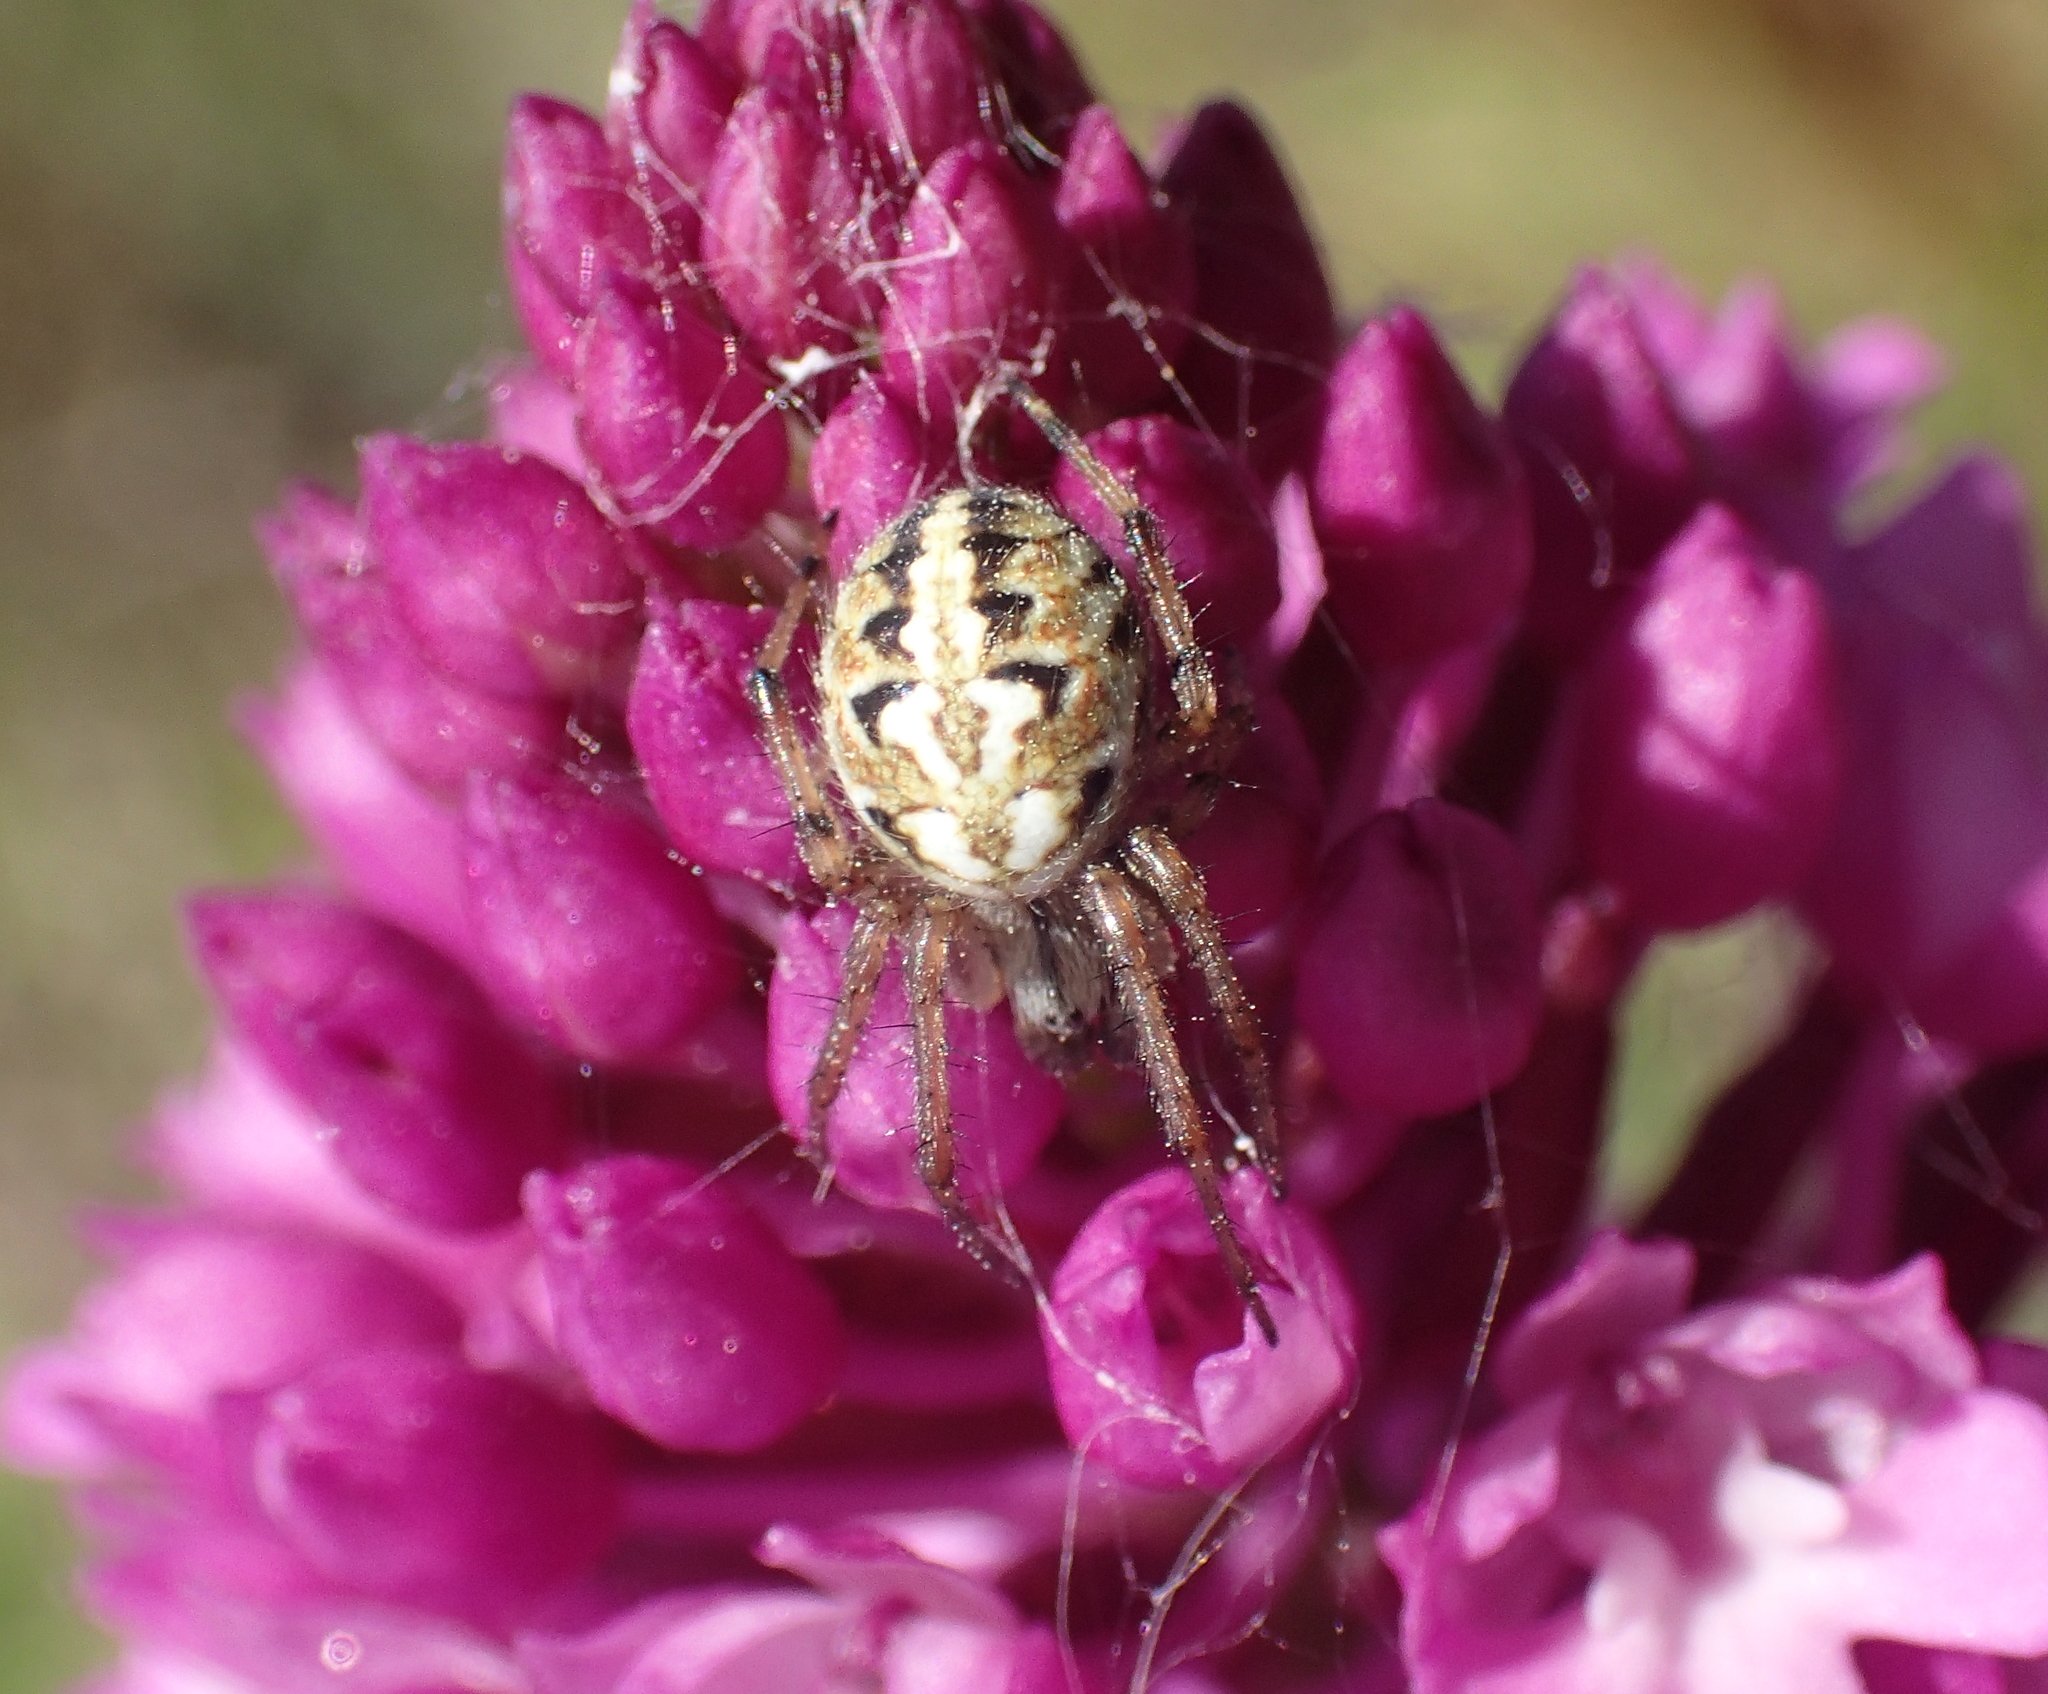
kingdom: Animalia
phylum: Arthropoda
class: Arachnida
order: Araneae
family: Araneidae
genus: Neoscona
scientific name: Neoscona adianta
